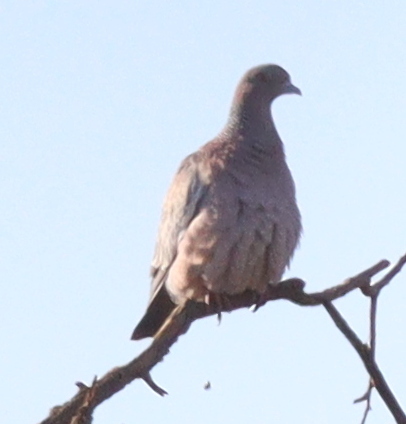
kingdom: Animalia
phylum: Chordata
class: Aves
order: Columbiformes
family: Columbidae
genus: Patagioenas
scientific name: Patagioenas picazuro
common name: Picazuro pigeon
